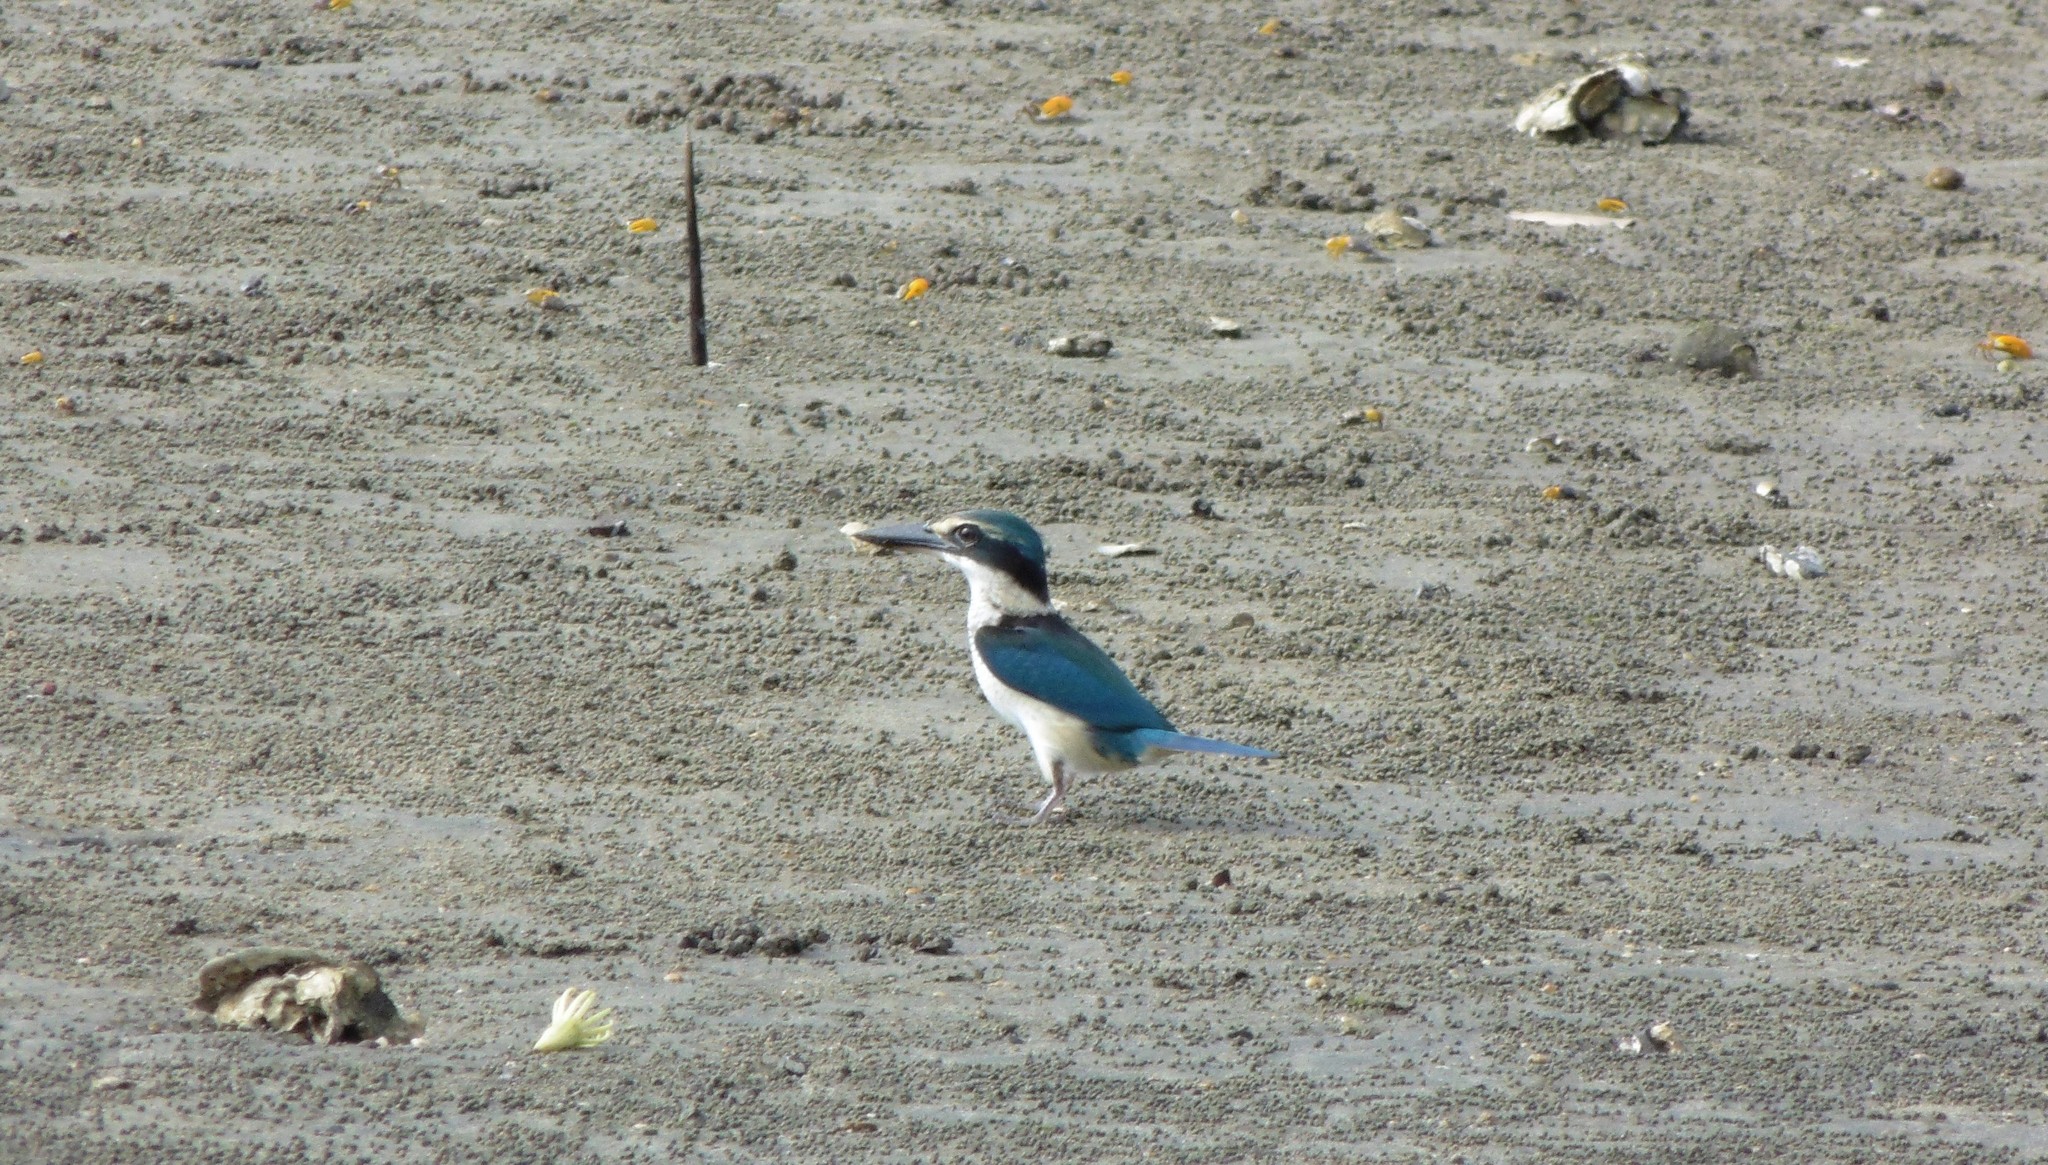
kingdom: Animalia
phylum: Chordata
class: Aves
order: Coraciiformes
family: Alcedinidae
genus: Todiramphus
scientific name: Todiramphus sacer
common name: Pacific kingfisher
